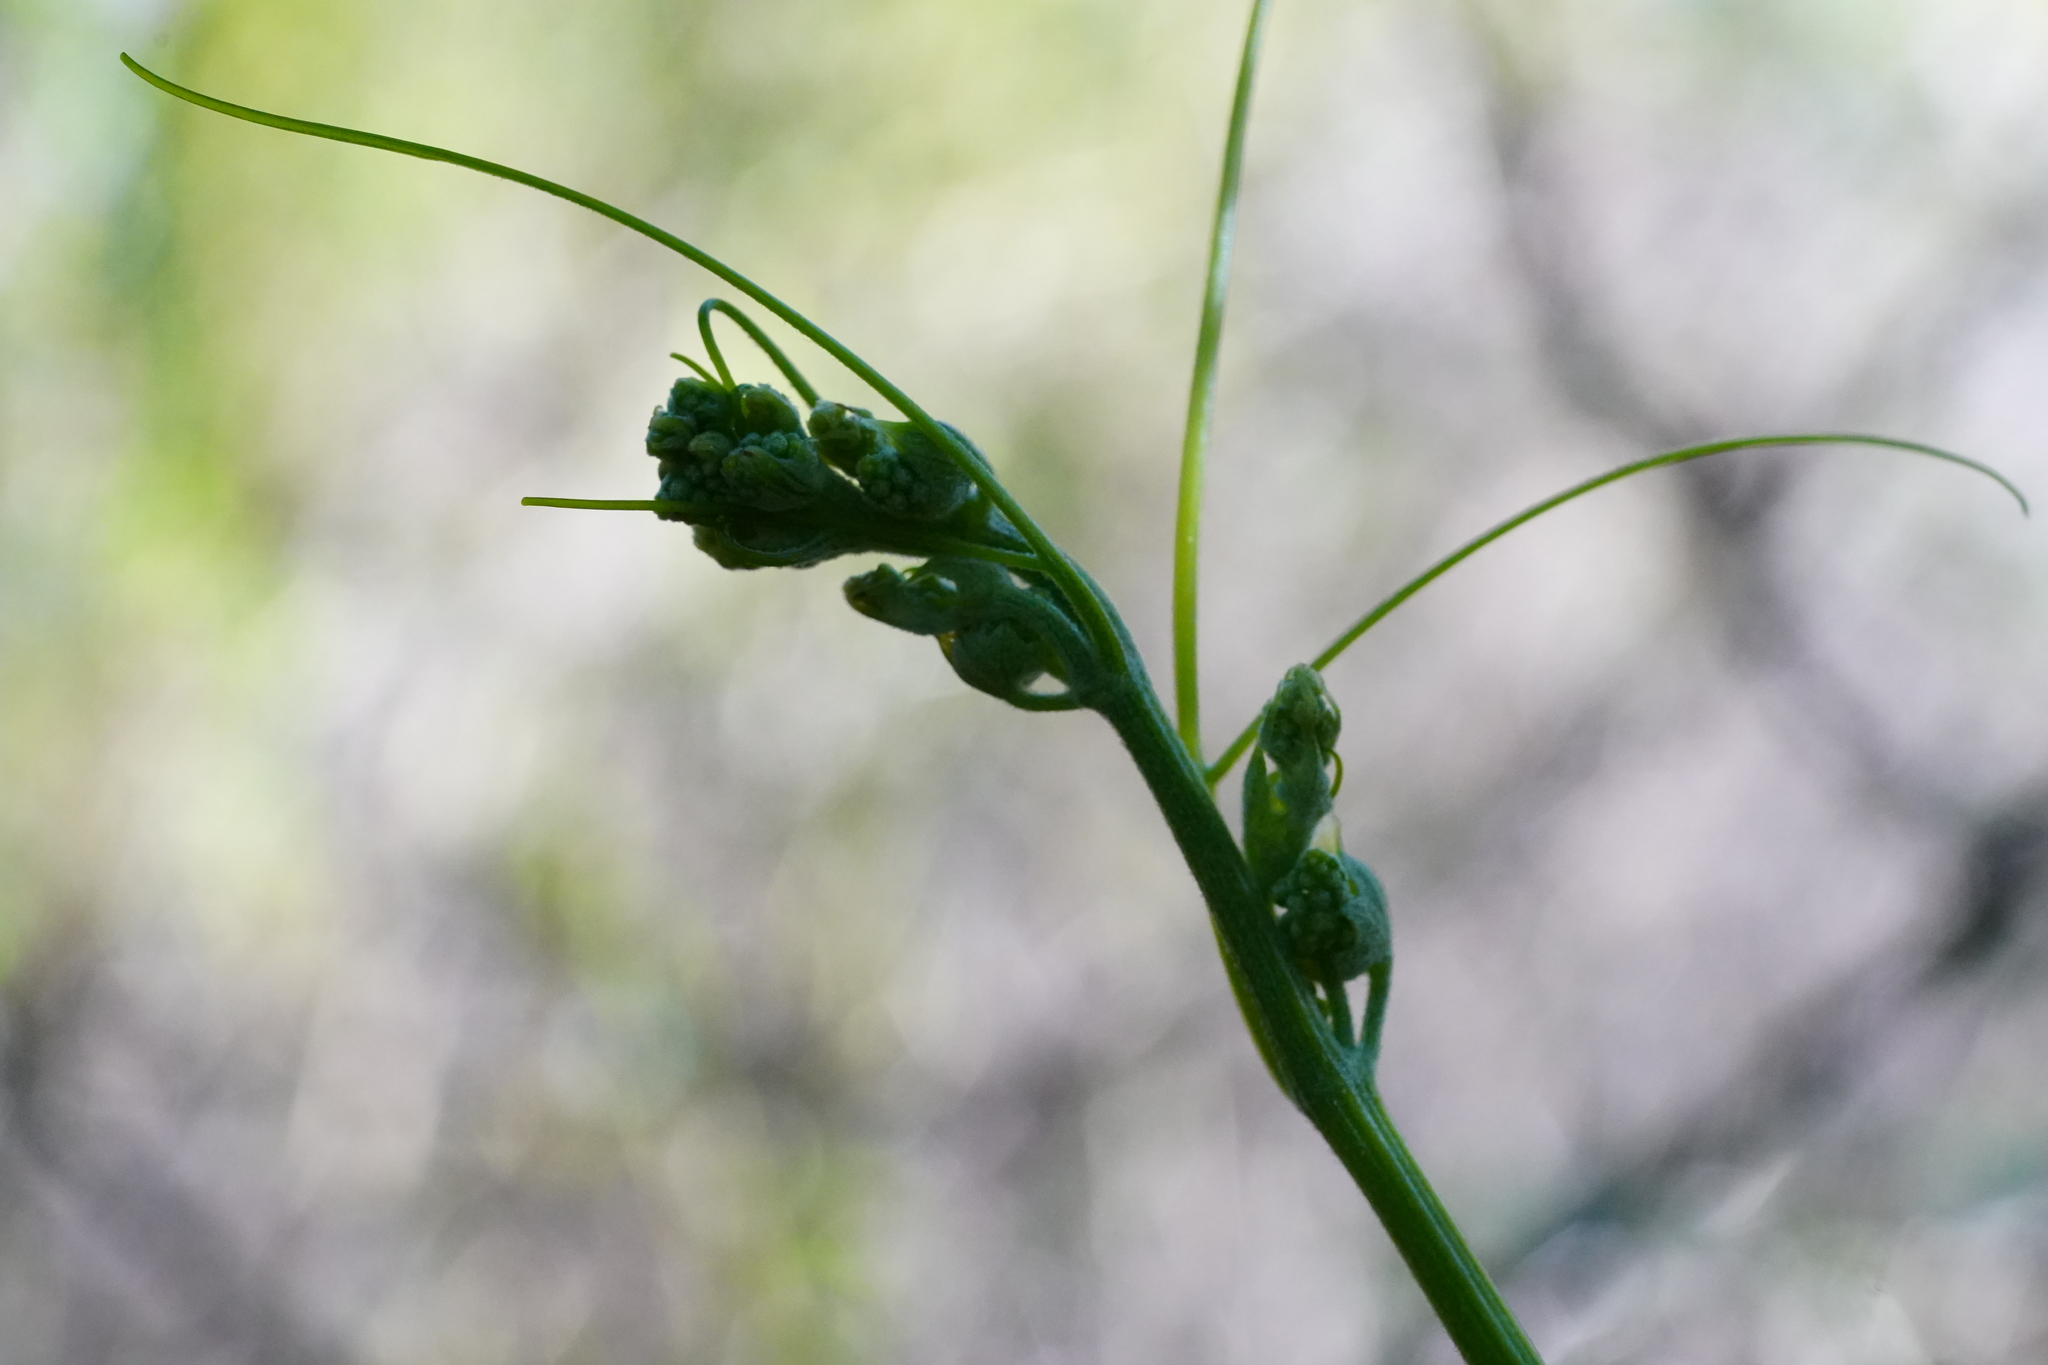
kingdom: Plantae
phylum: Tracheophyta
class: Magnoliopsida
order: Cucurbitales
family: Cucurbitaceae
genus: Marah
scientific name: Marah fabacea
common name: California manroot
